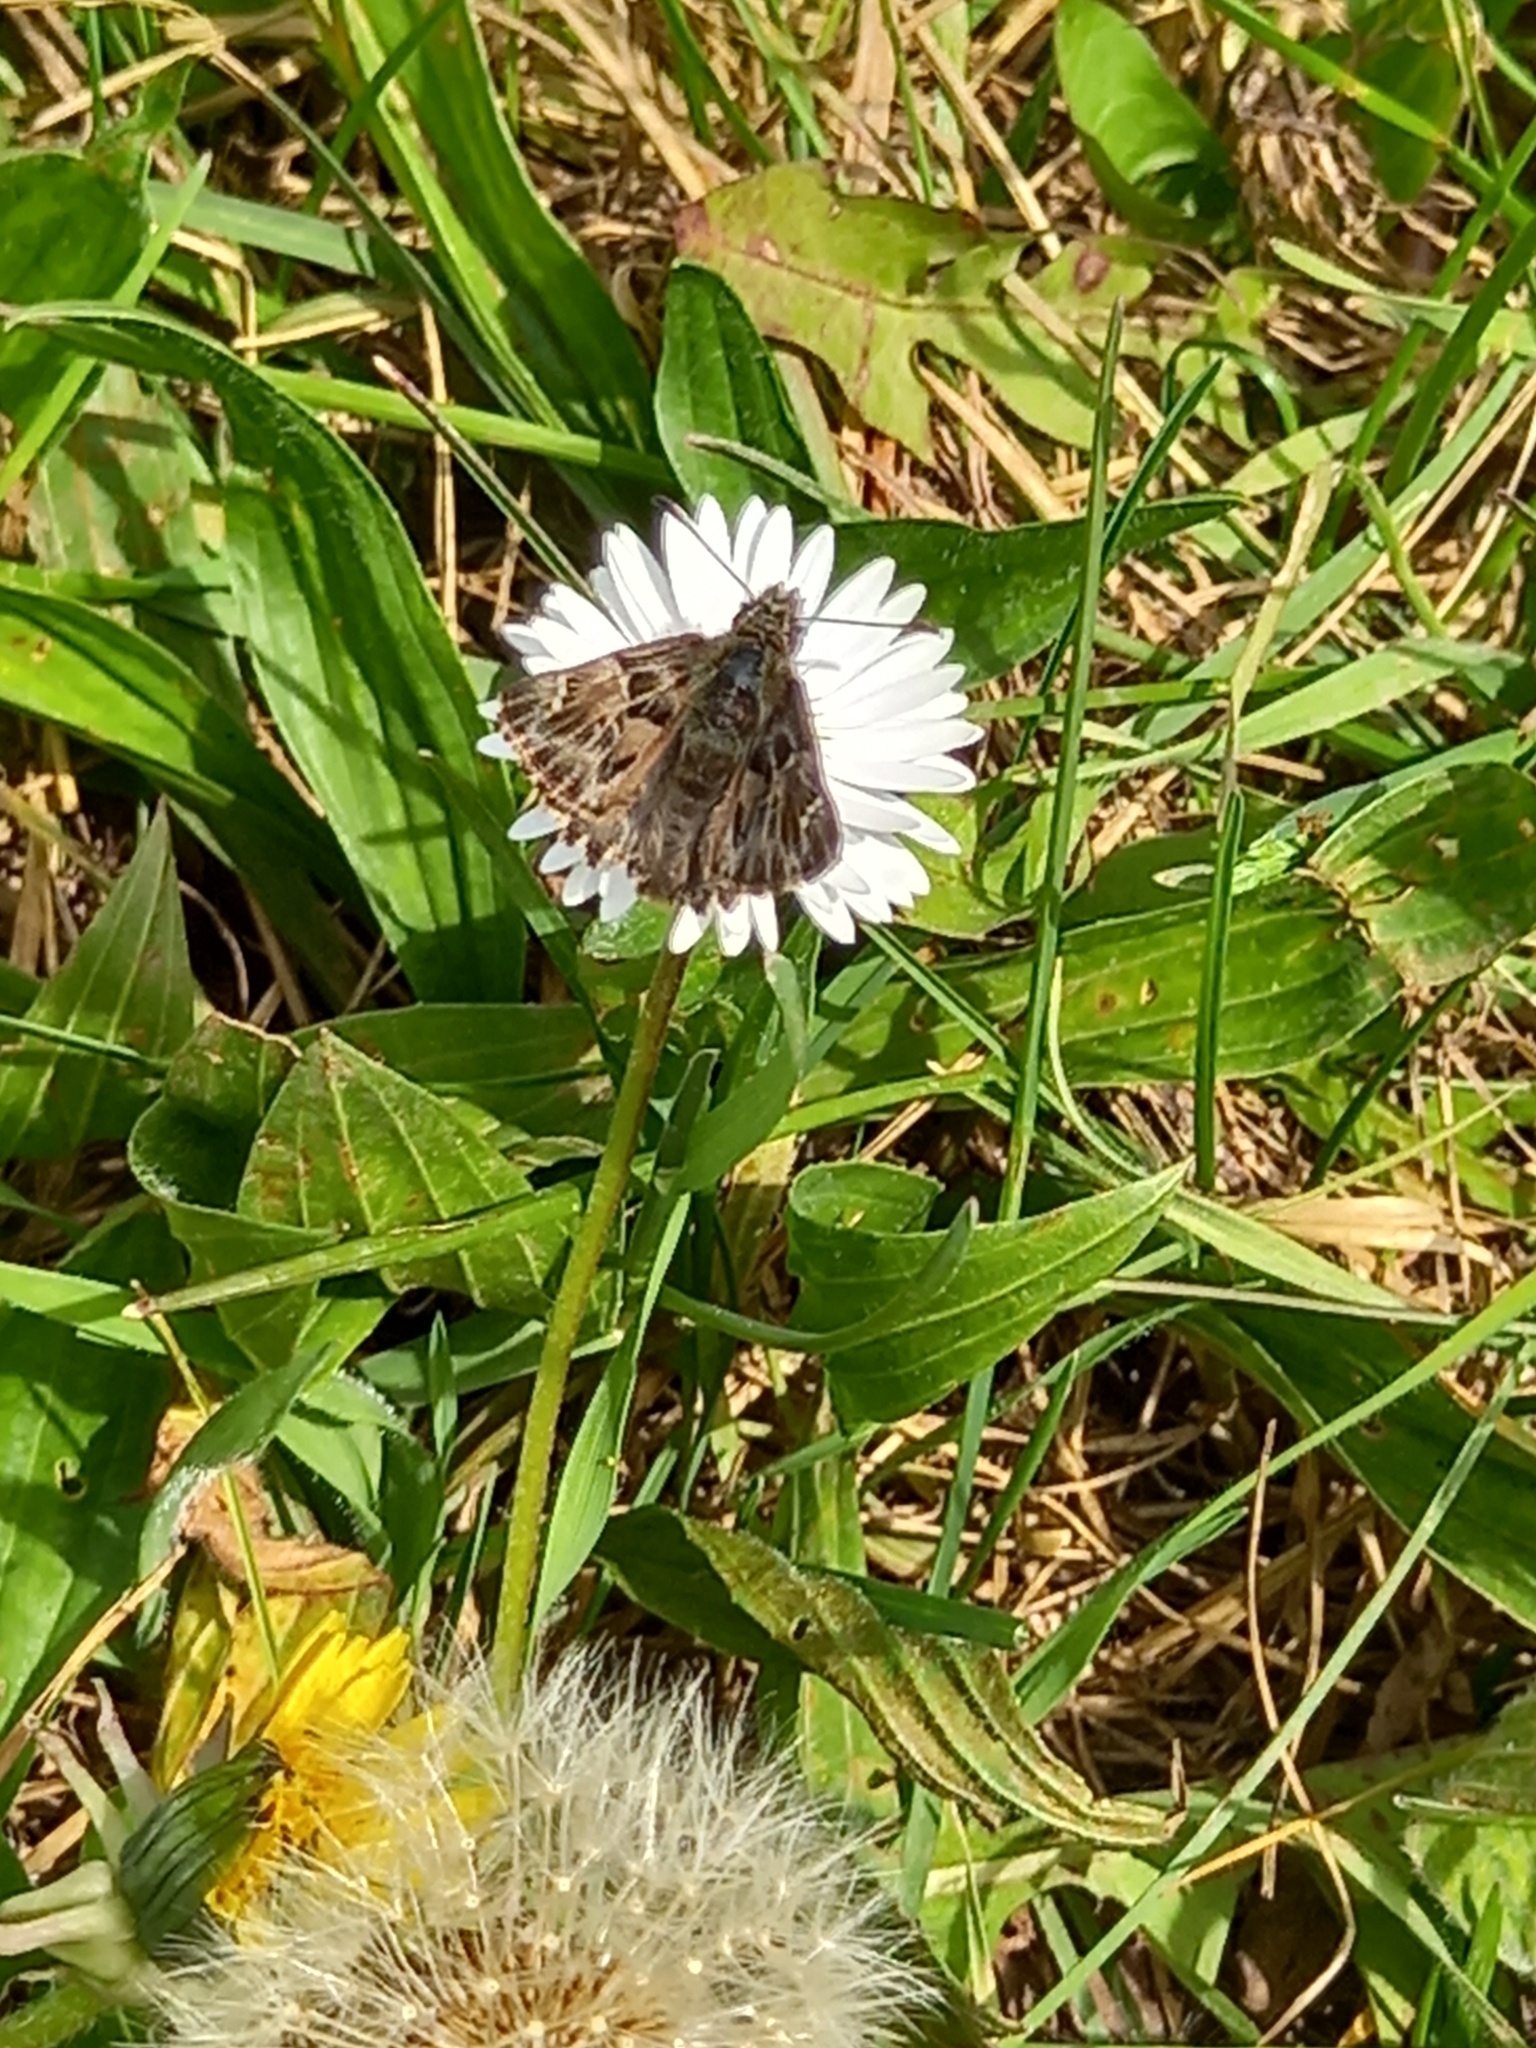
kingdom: Animalia
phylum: Arthropoda
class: Insecta
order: Lepidoptera
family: Hesperiidae
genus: Carcharodus
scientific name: Carcharodus alceae
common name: Mallow skipper
